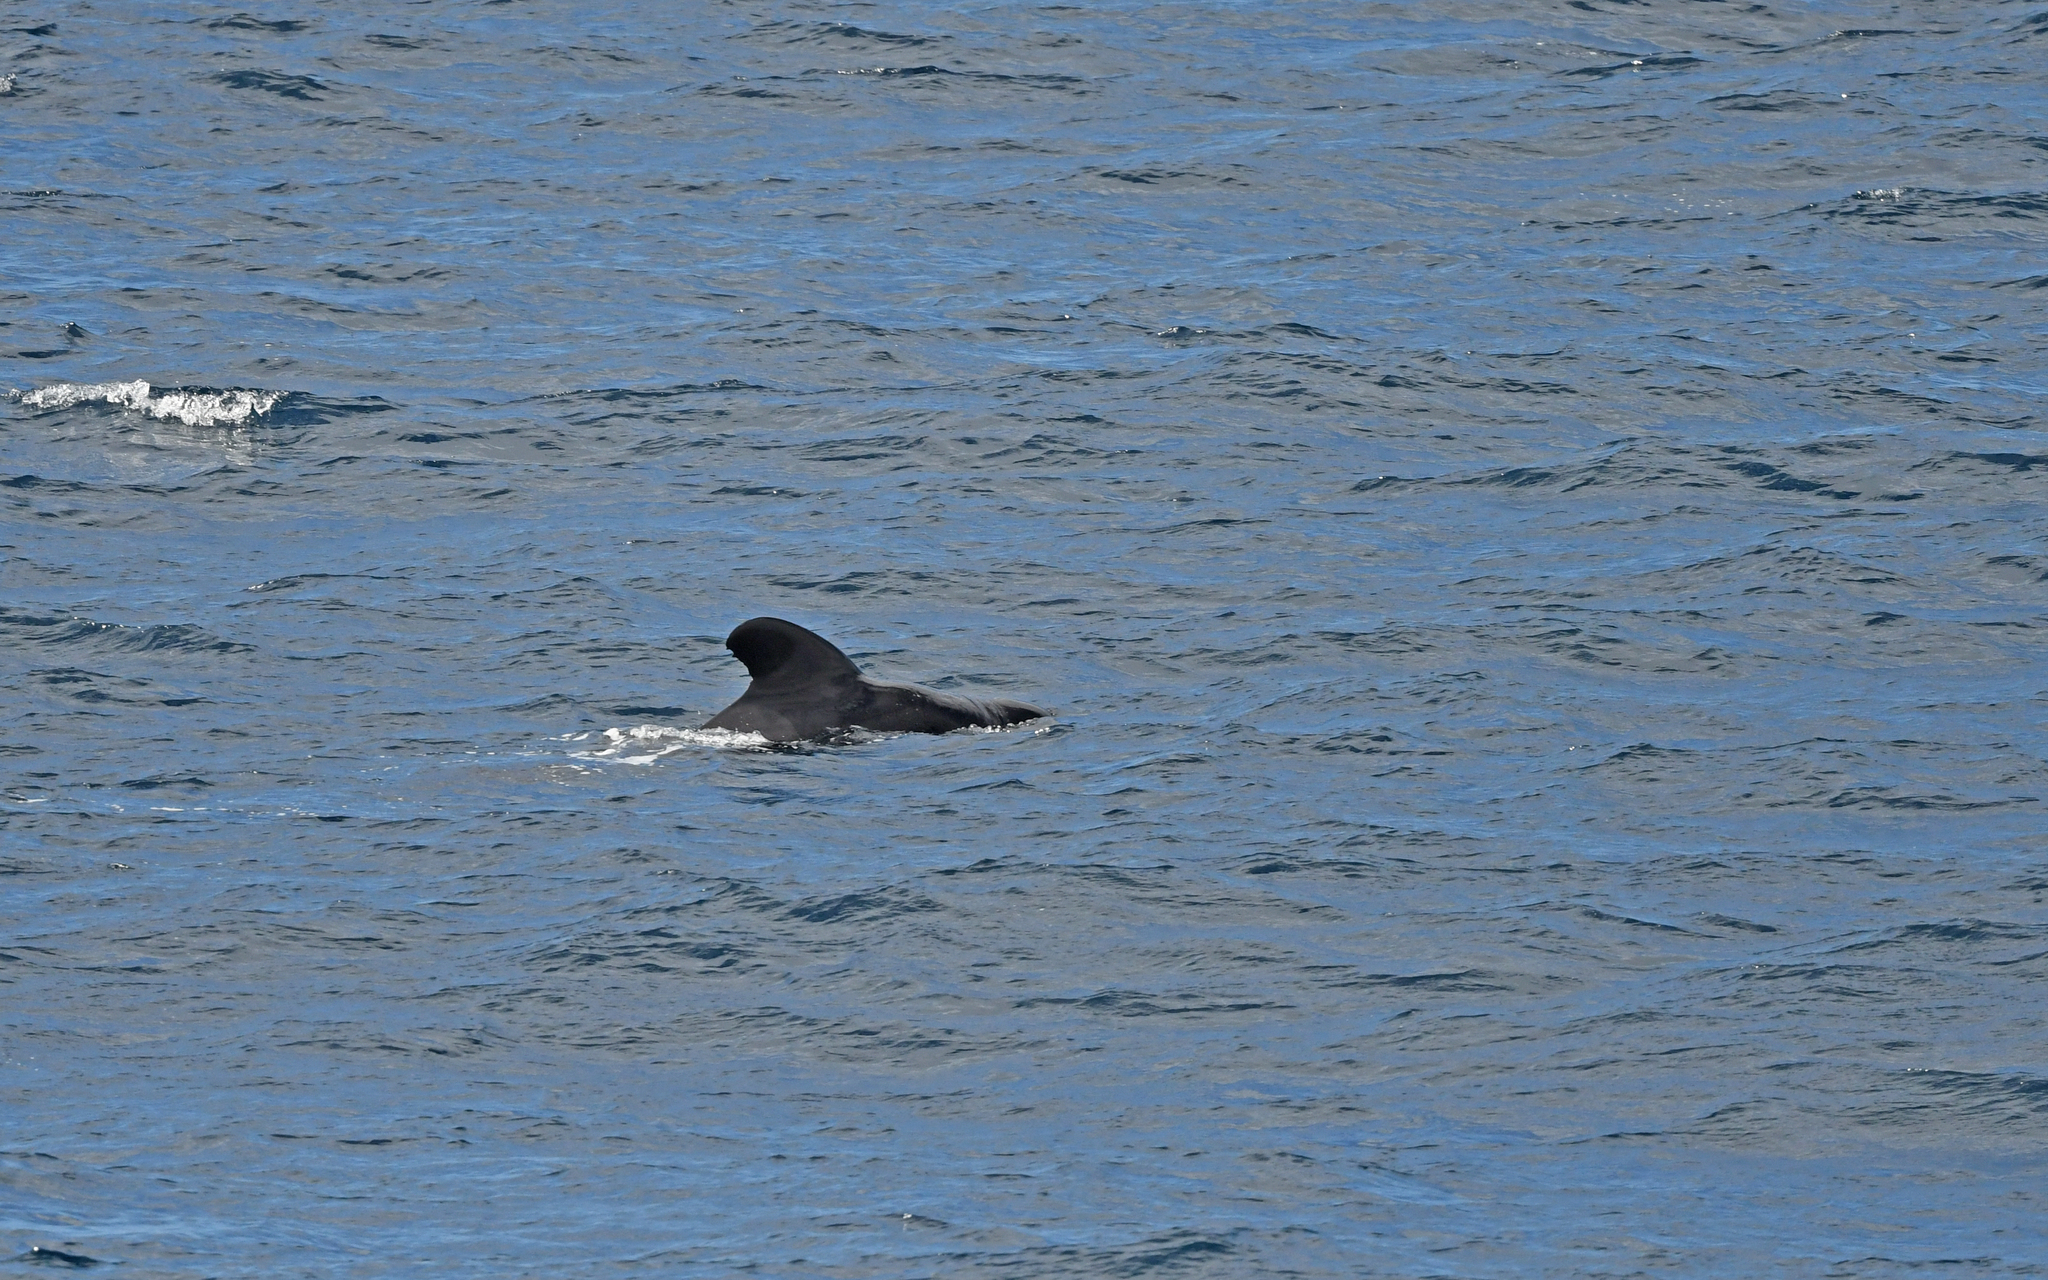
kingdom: Animalia
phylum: Chordata
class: Mammalia
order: Cetacea
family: Delphinidae
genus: Globicephala
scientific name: Globicephala macrorhynchus
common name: Short-finned pilot whale
